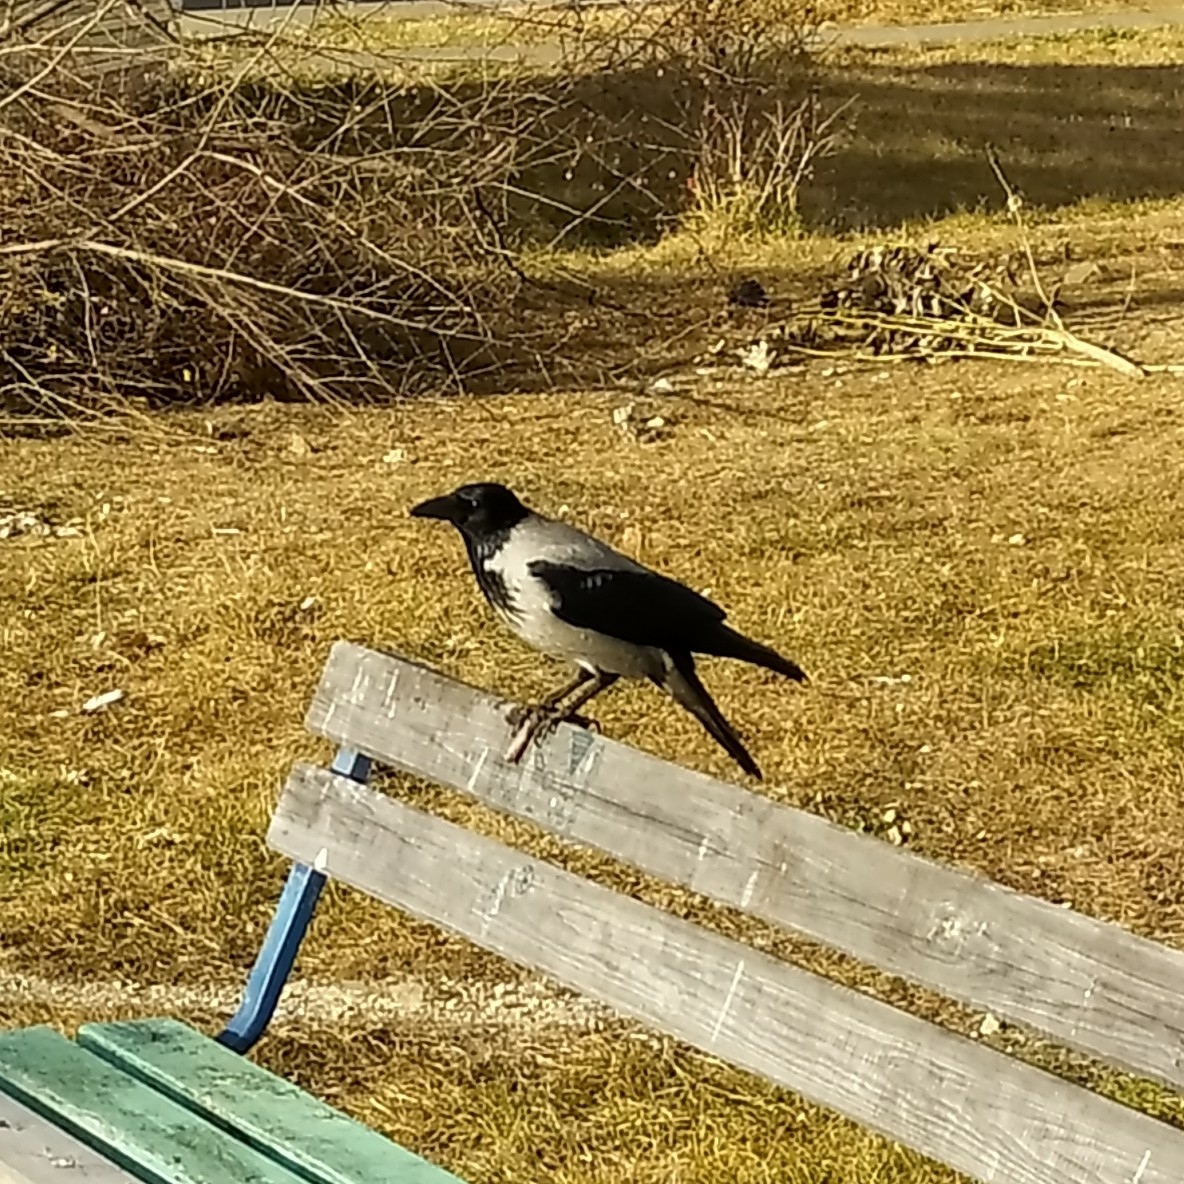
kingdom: Animalia
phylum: Chordata
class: Aves
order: Passeriformes
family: Corvidae
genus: Corvus
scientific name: Corvus cornix
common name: Hooded crow
